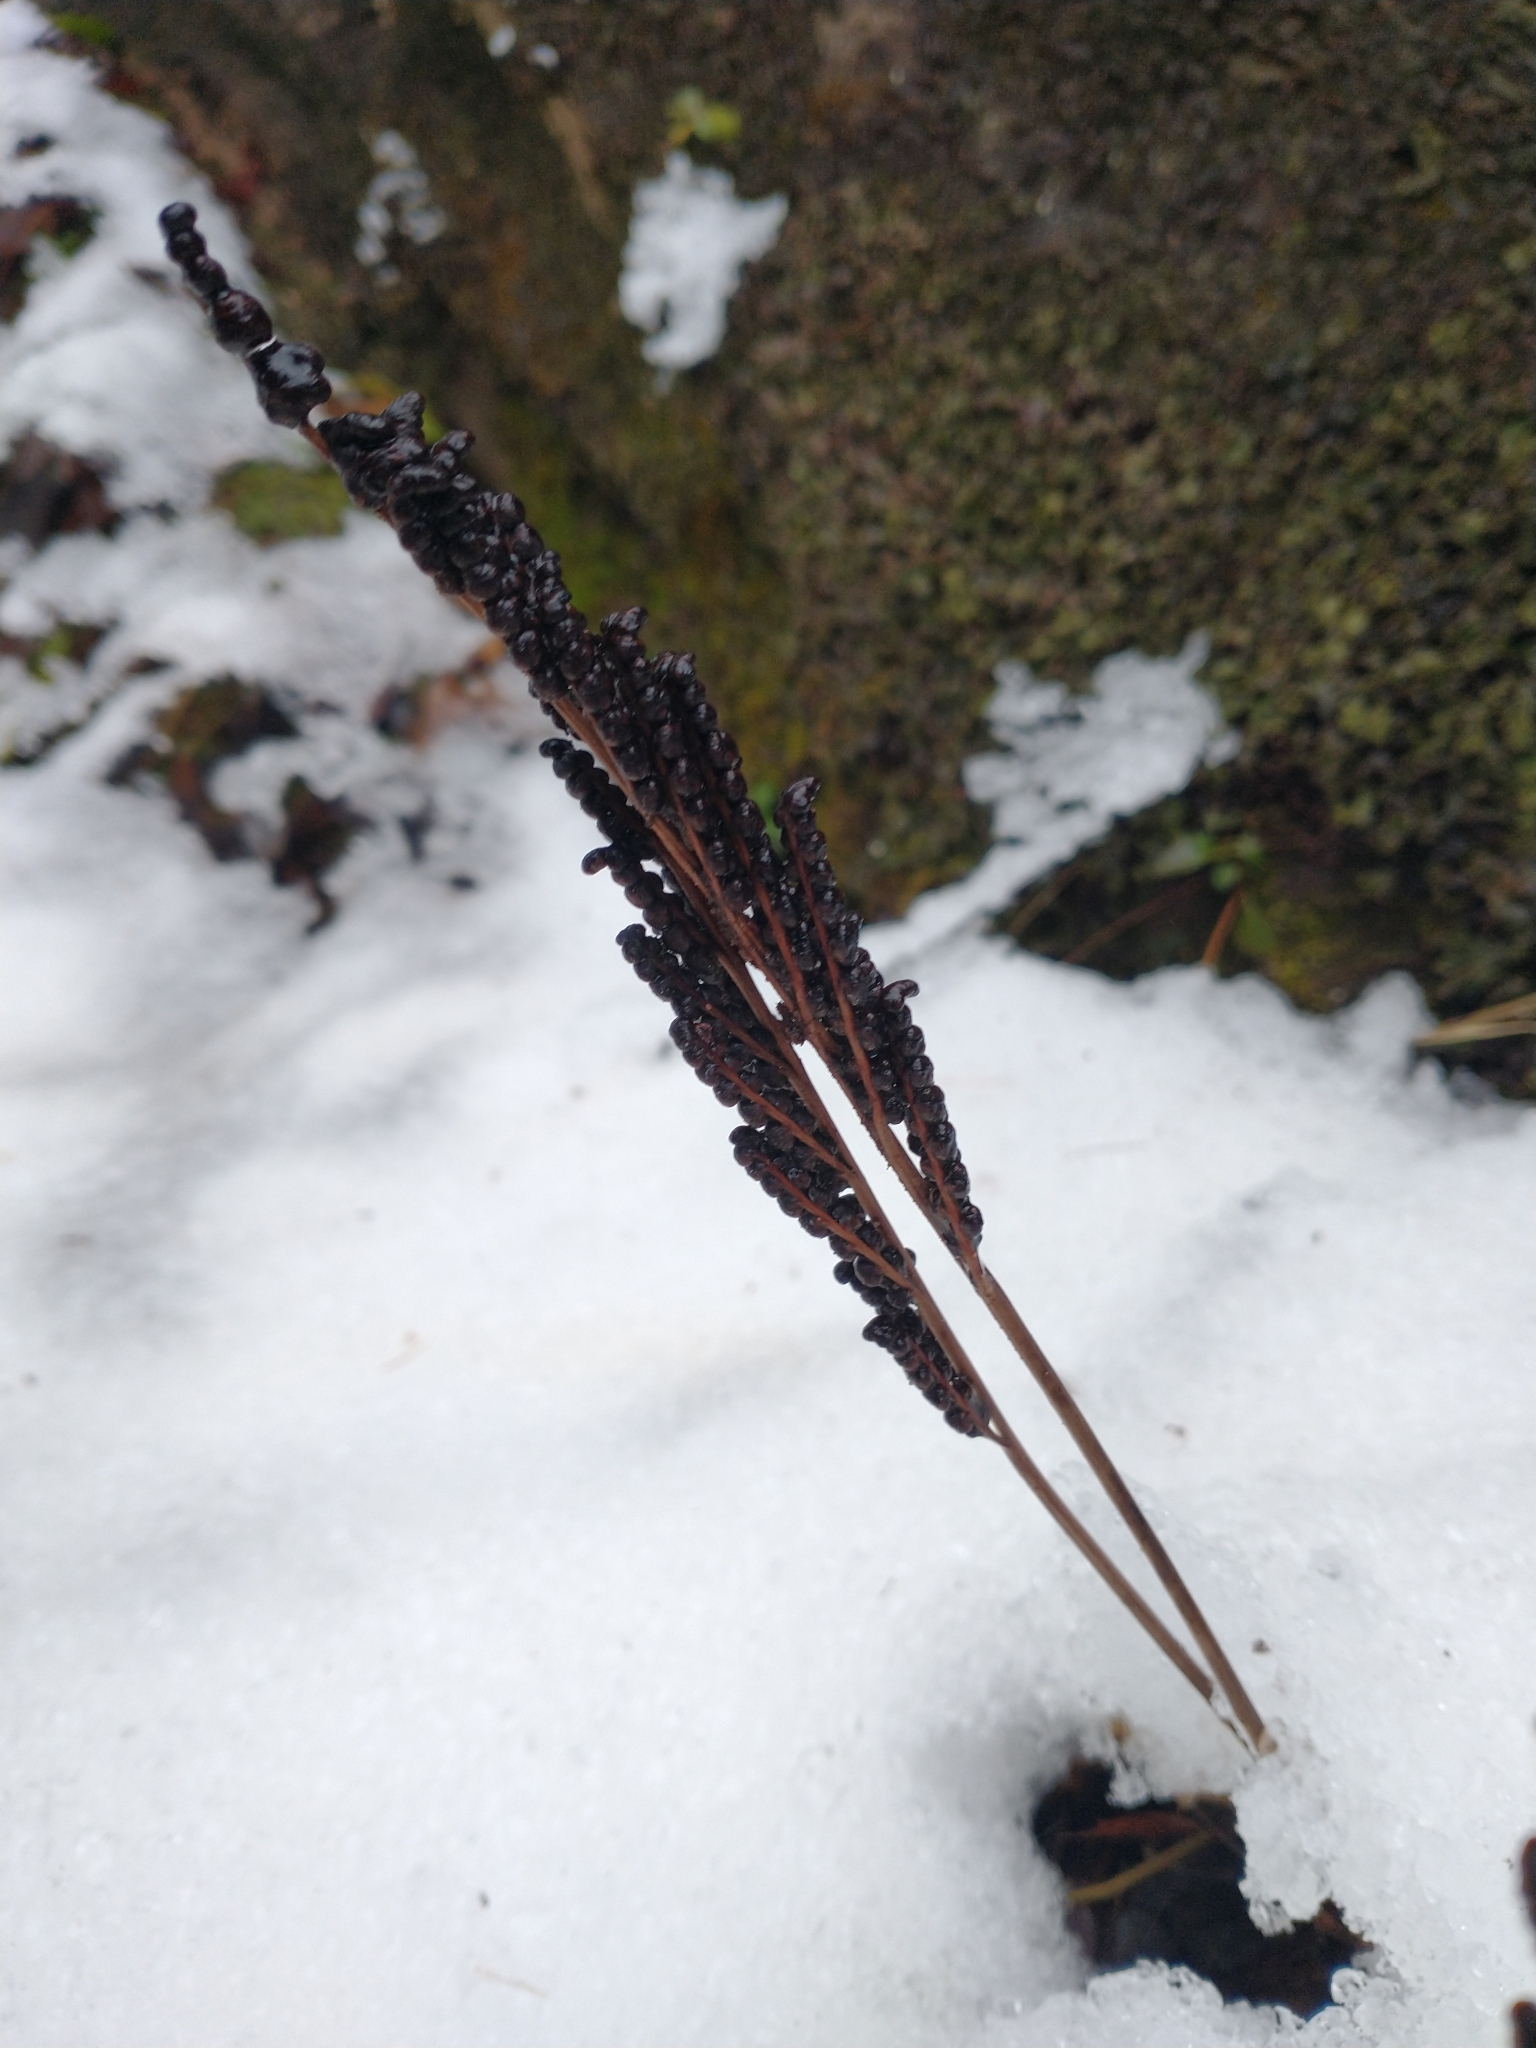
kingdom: Plantae
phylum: Tracheophyta
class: Polypodiopsida
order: Polypodiales
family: Onocleaceae
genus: Onoclea
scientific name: Onoclea sensibilis
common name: Sensitive fern
